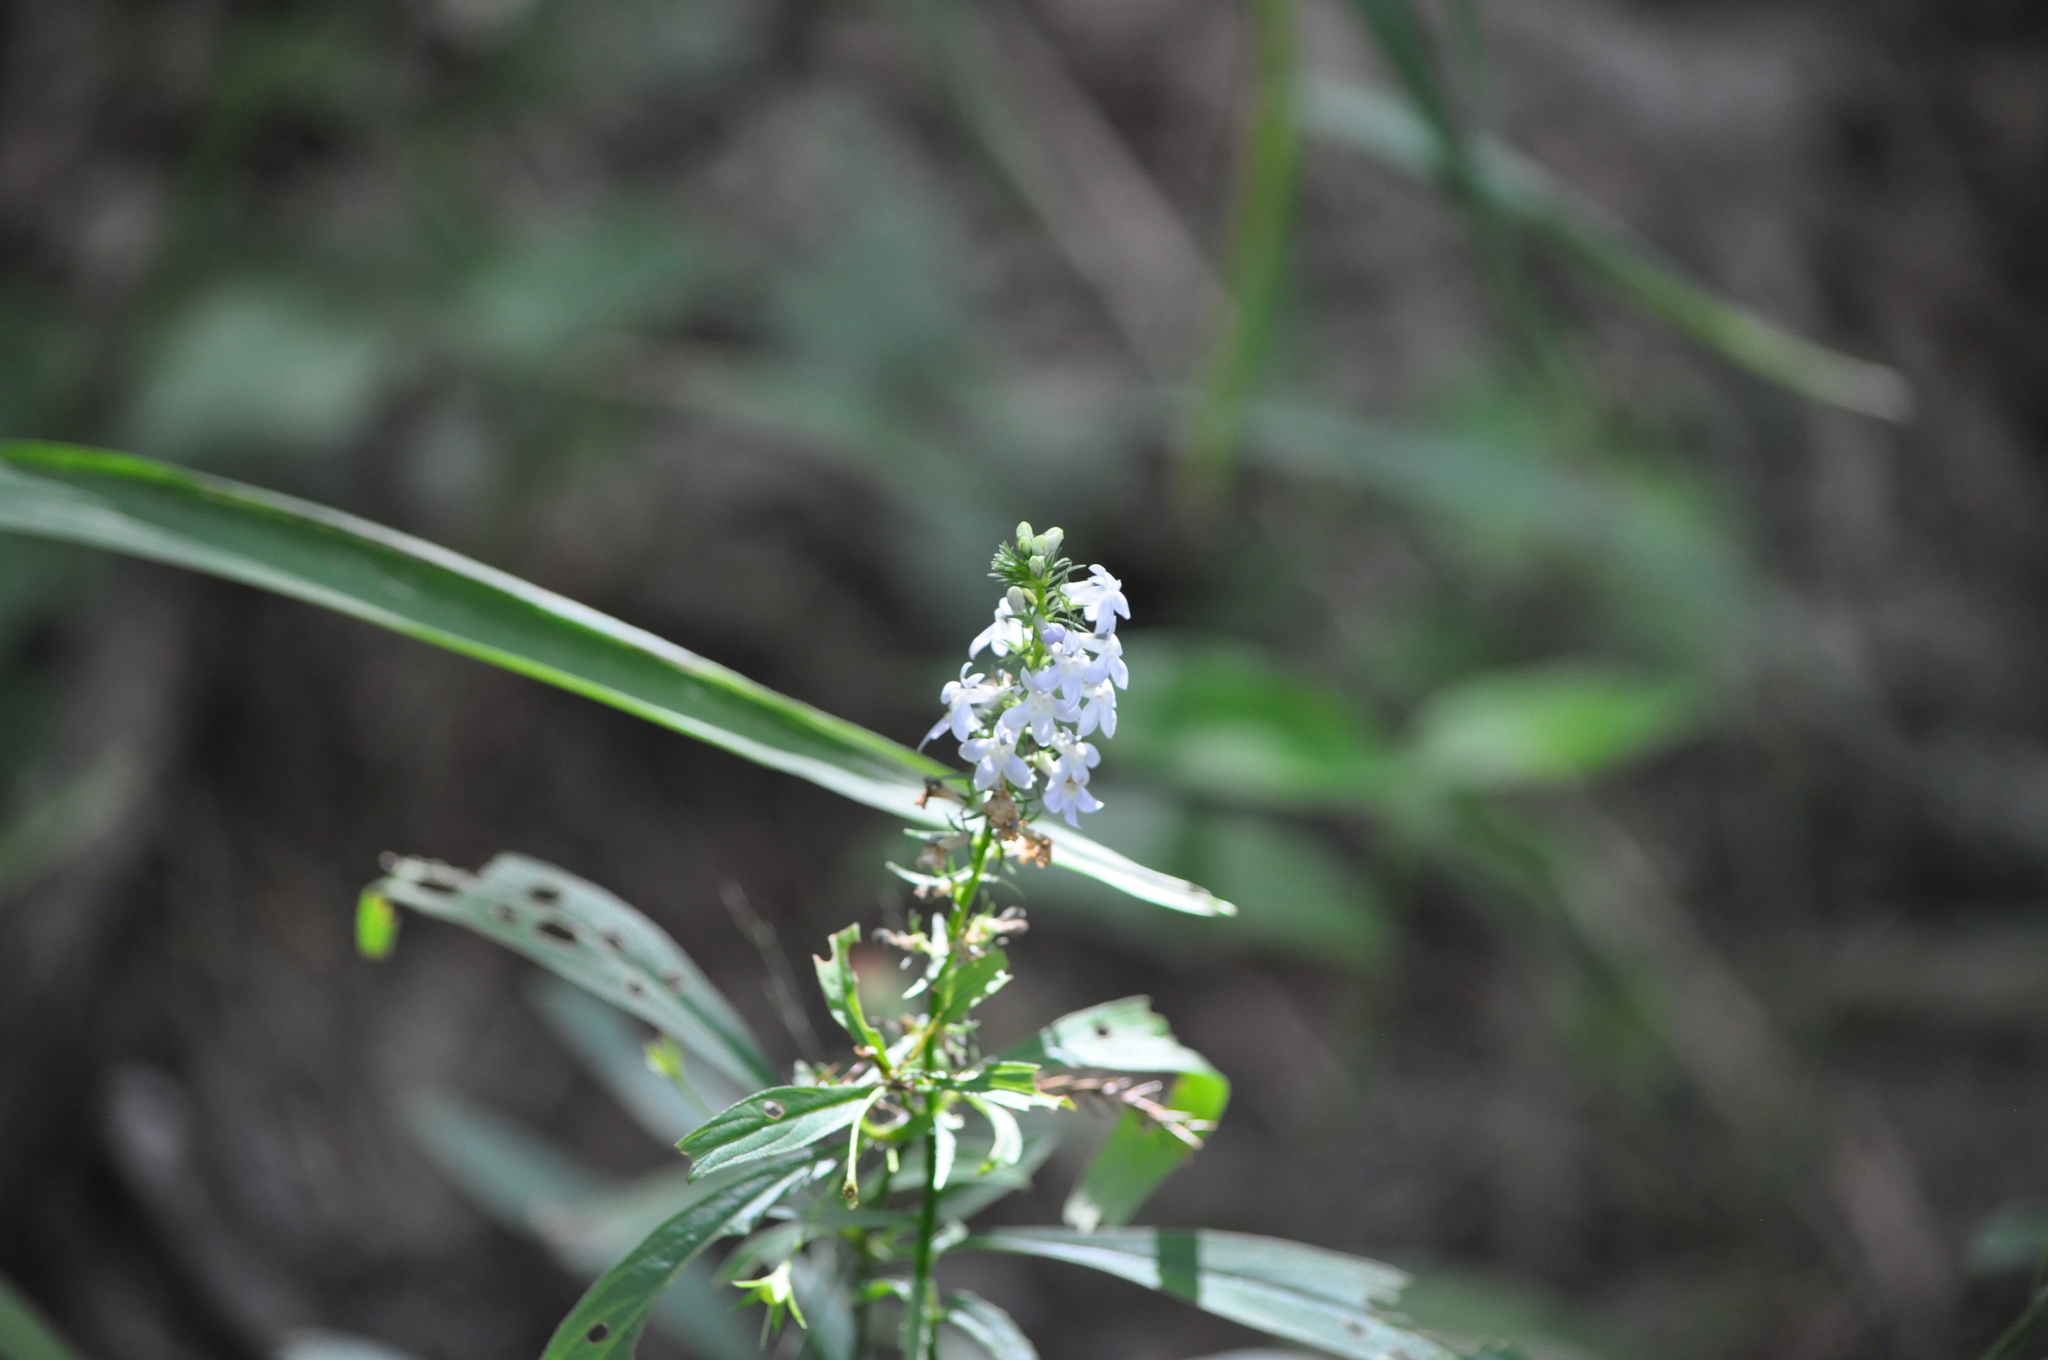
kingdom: Plantae
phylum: Tracheophyta
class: Magnoliopsida
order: Asterales
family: Campanulaceae
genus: Lobelia
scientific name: Lobelia spicata
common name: Pale-spike lobelia
